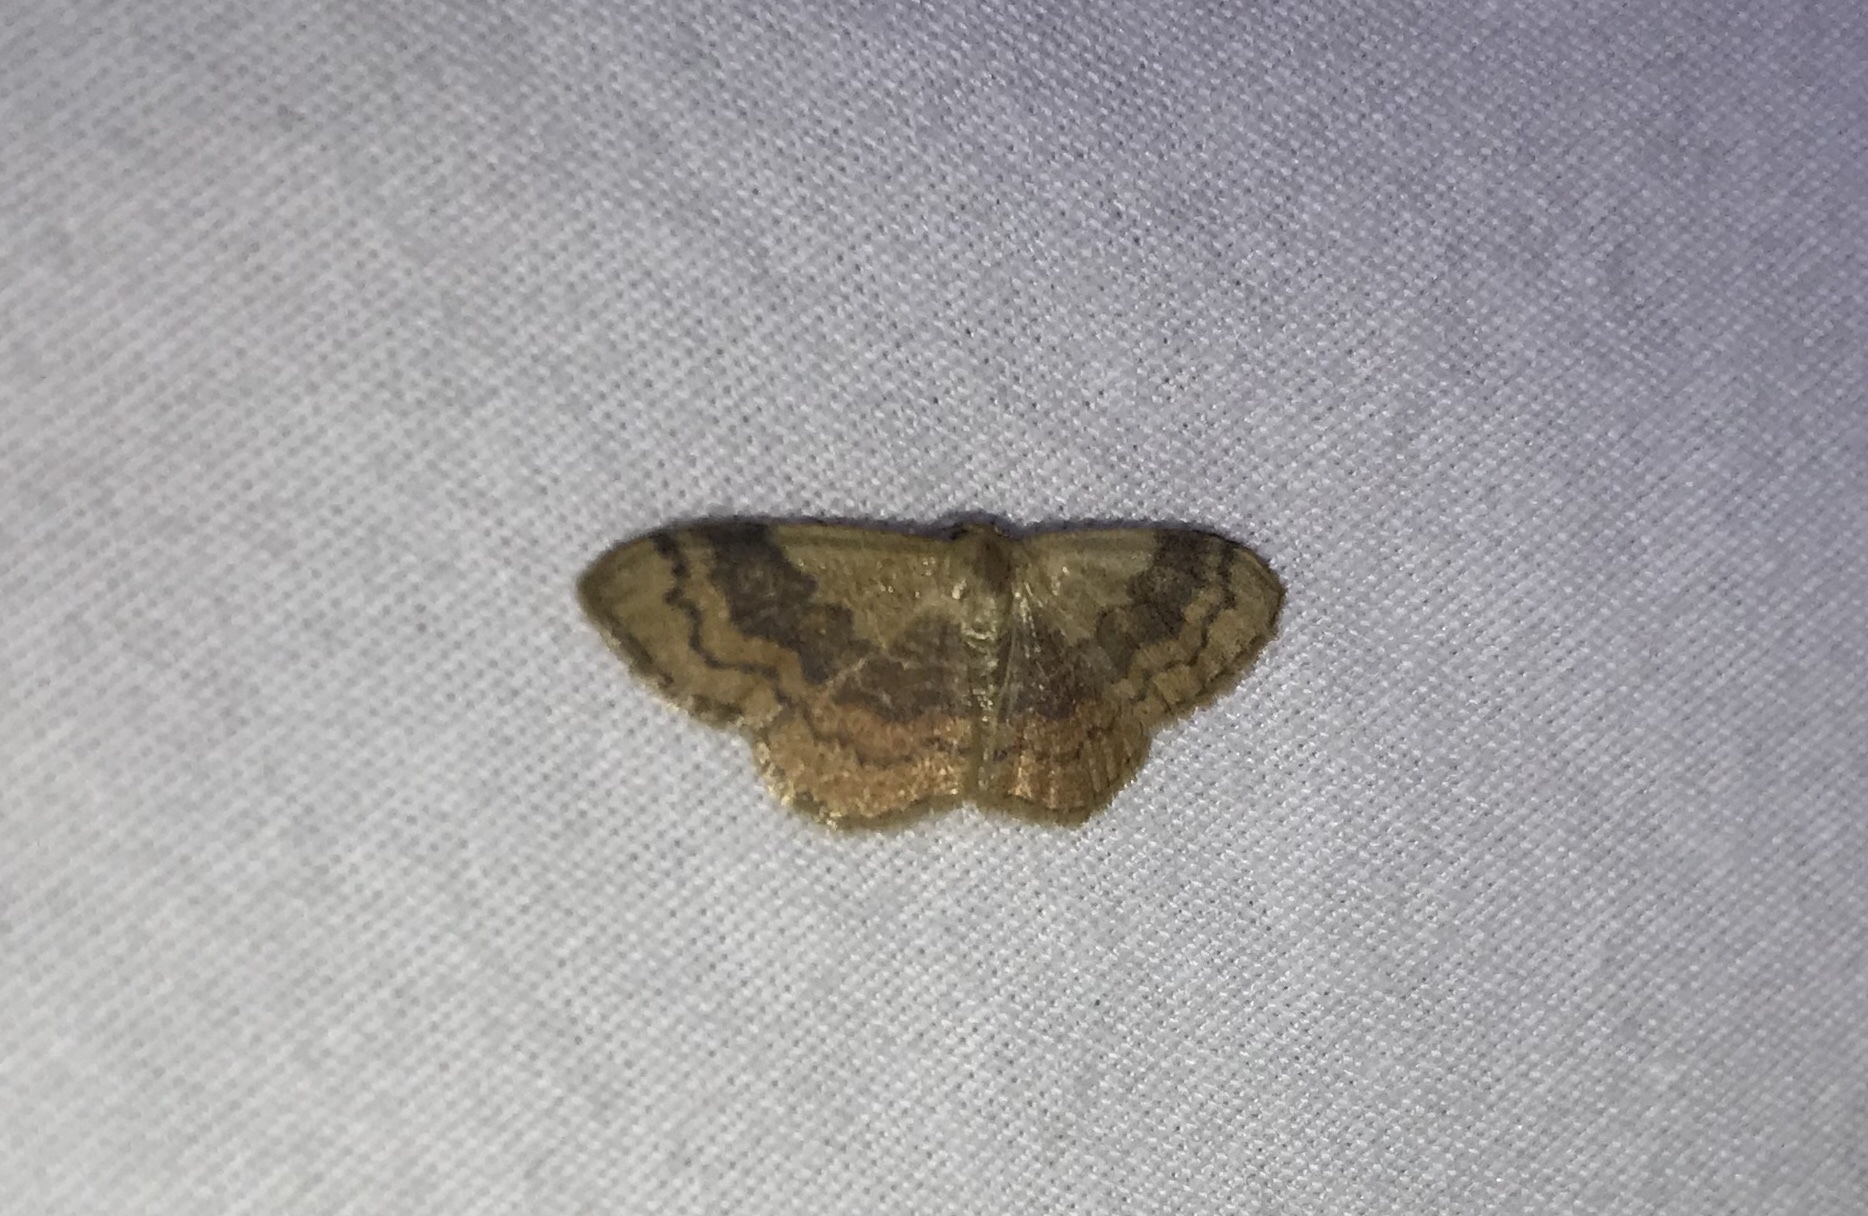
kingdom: Animalia
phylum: Arthropoda
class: Insecta
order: Lepidoptera
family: Geometridae
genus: Leptostales
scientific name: Leptostales ferruminaria
